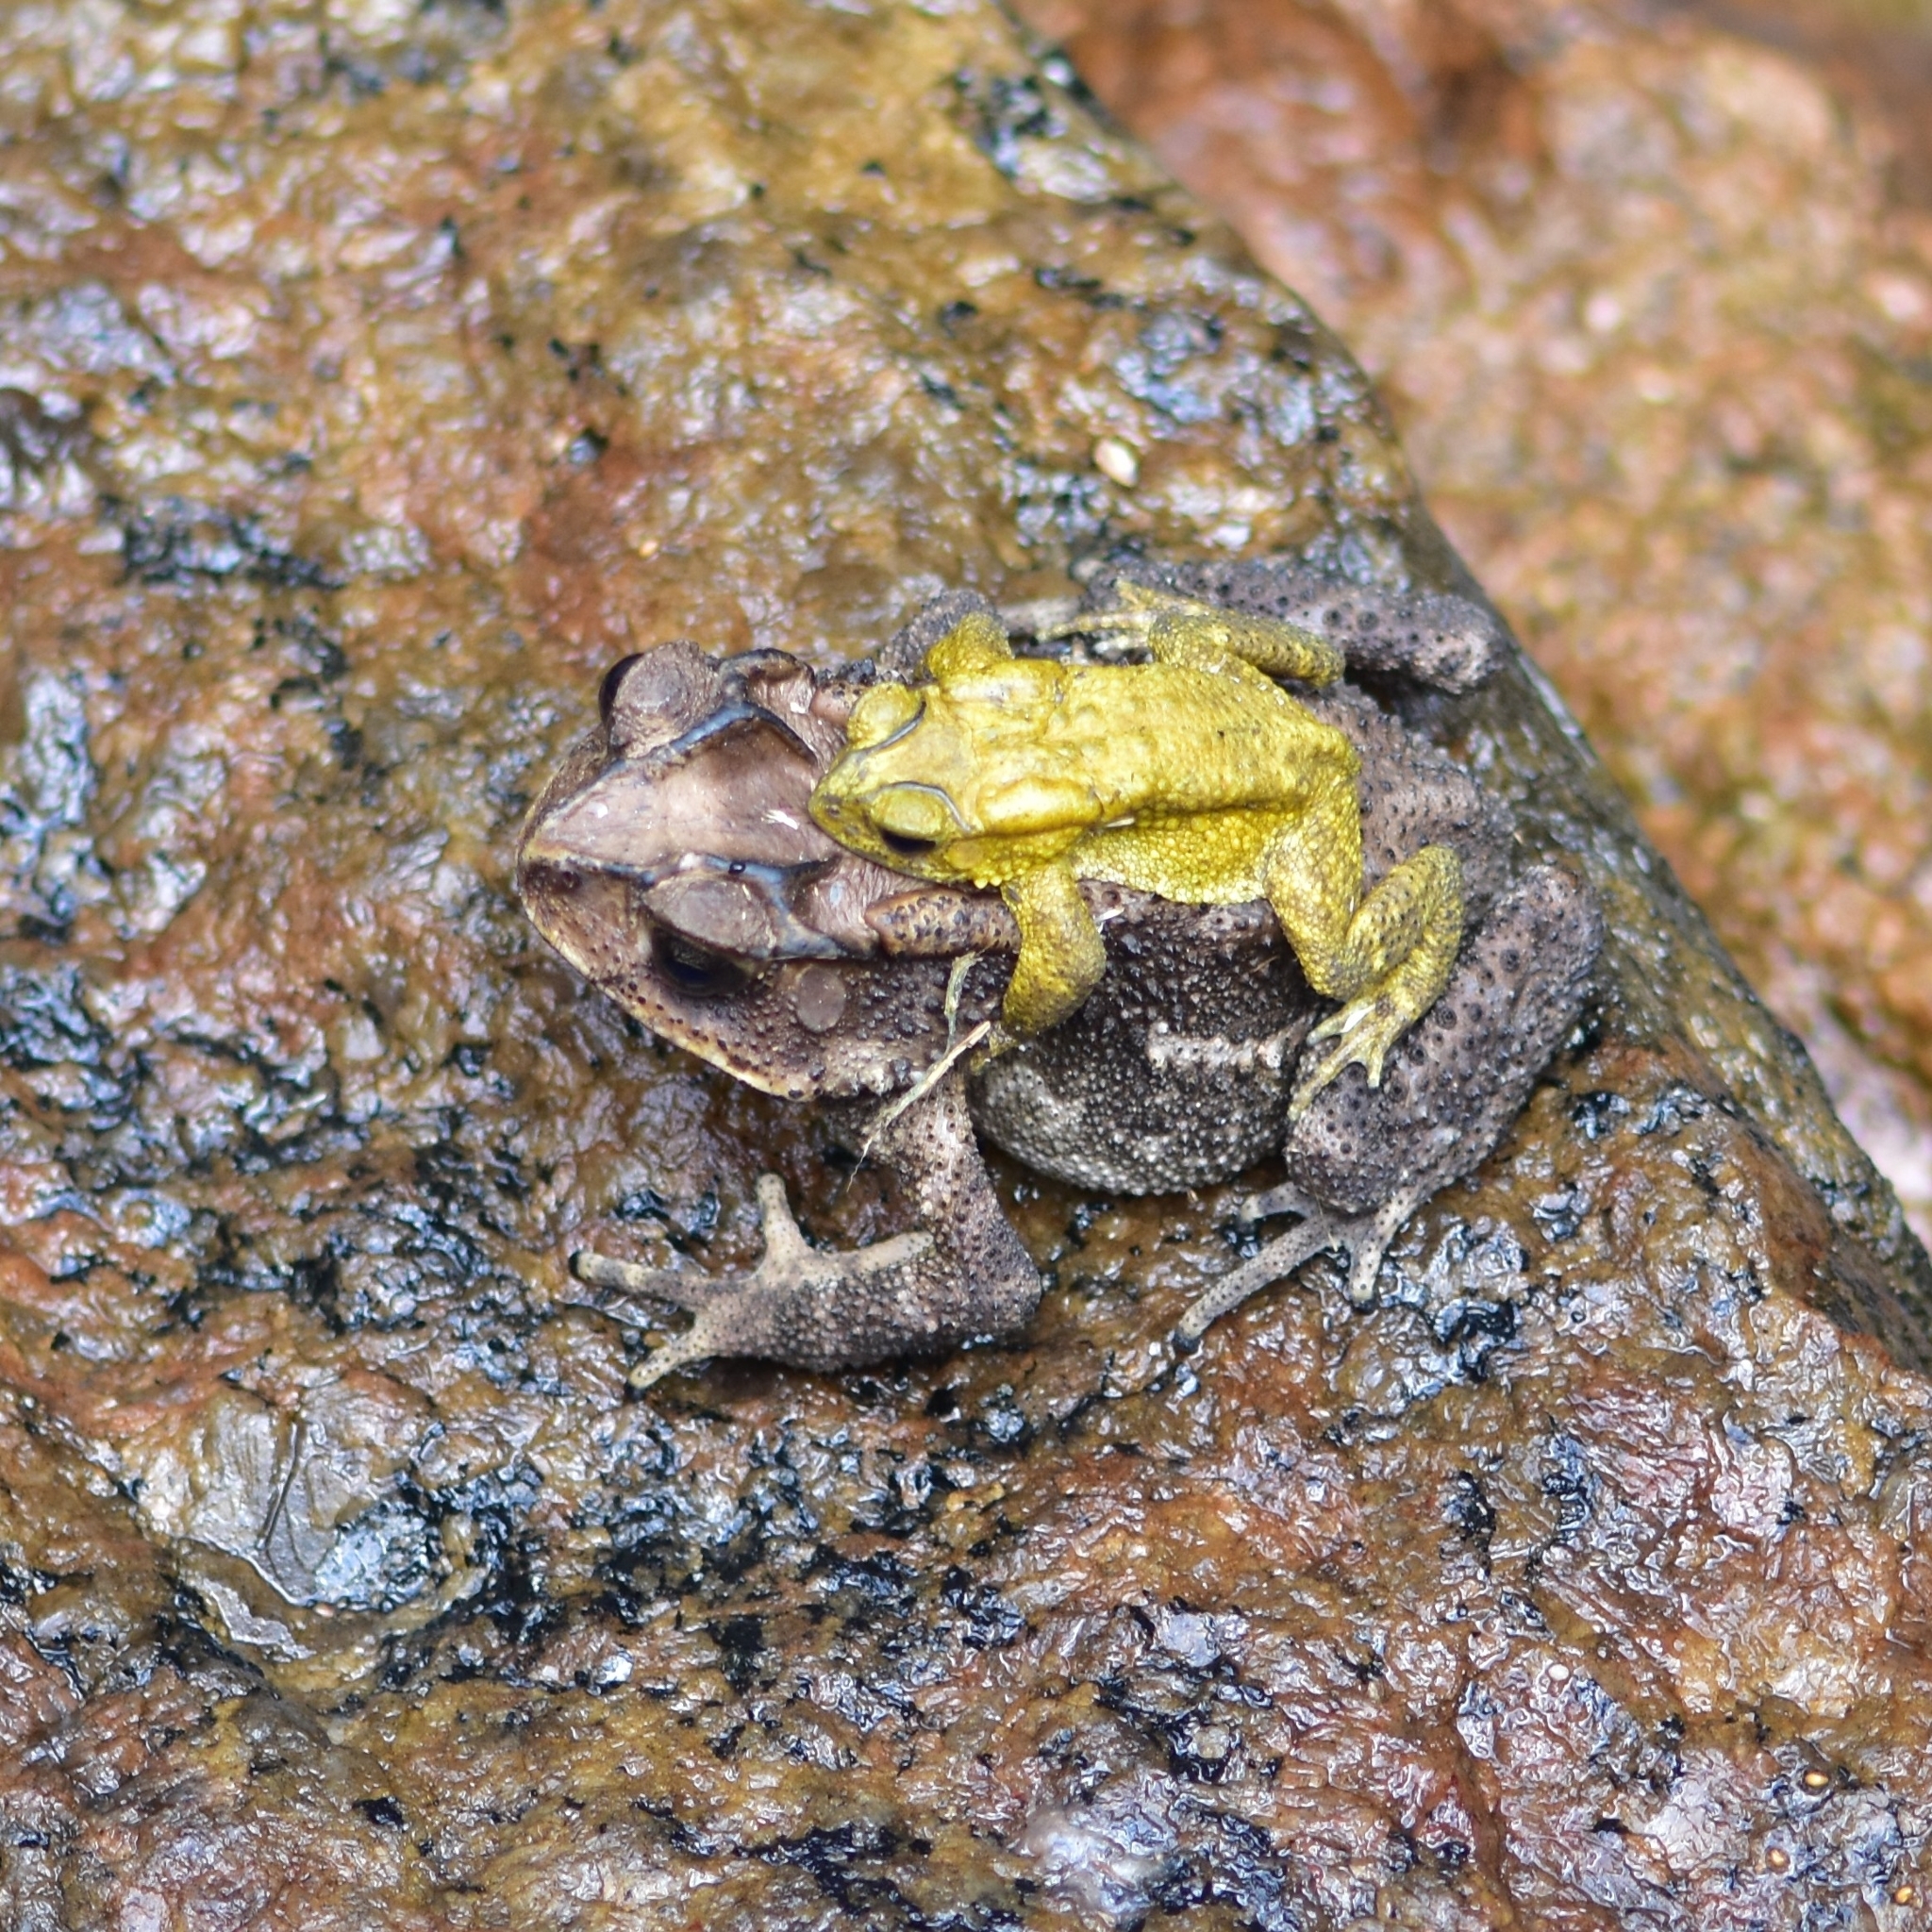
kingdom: Animalia
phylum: Chordata
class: Amphibia
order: Anura
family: Bufonidae
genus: Duttaphrynus
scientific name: Duttaphrynus melanostictus
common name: Common sunda toad
